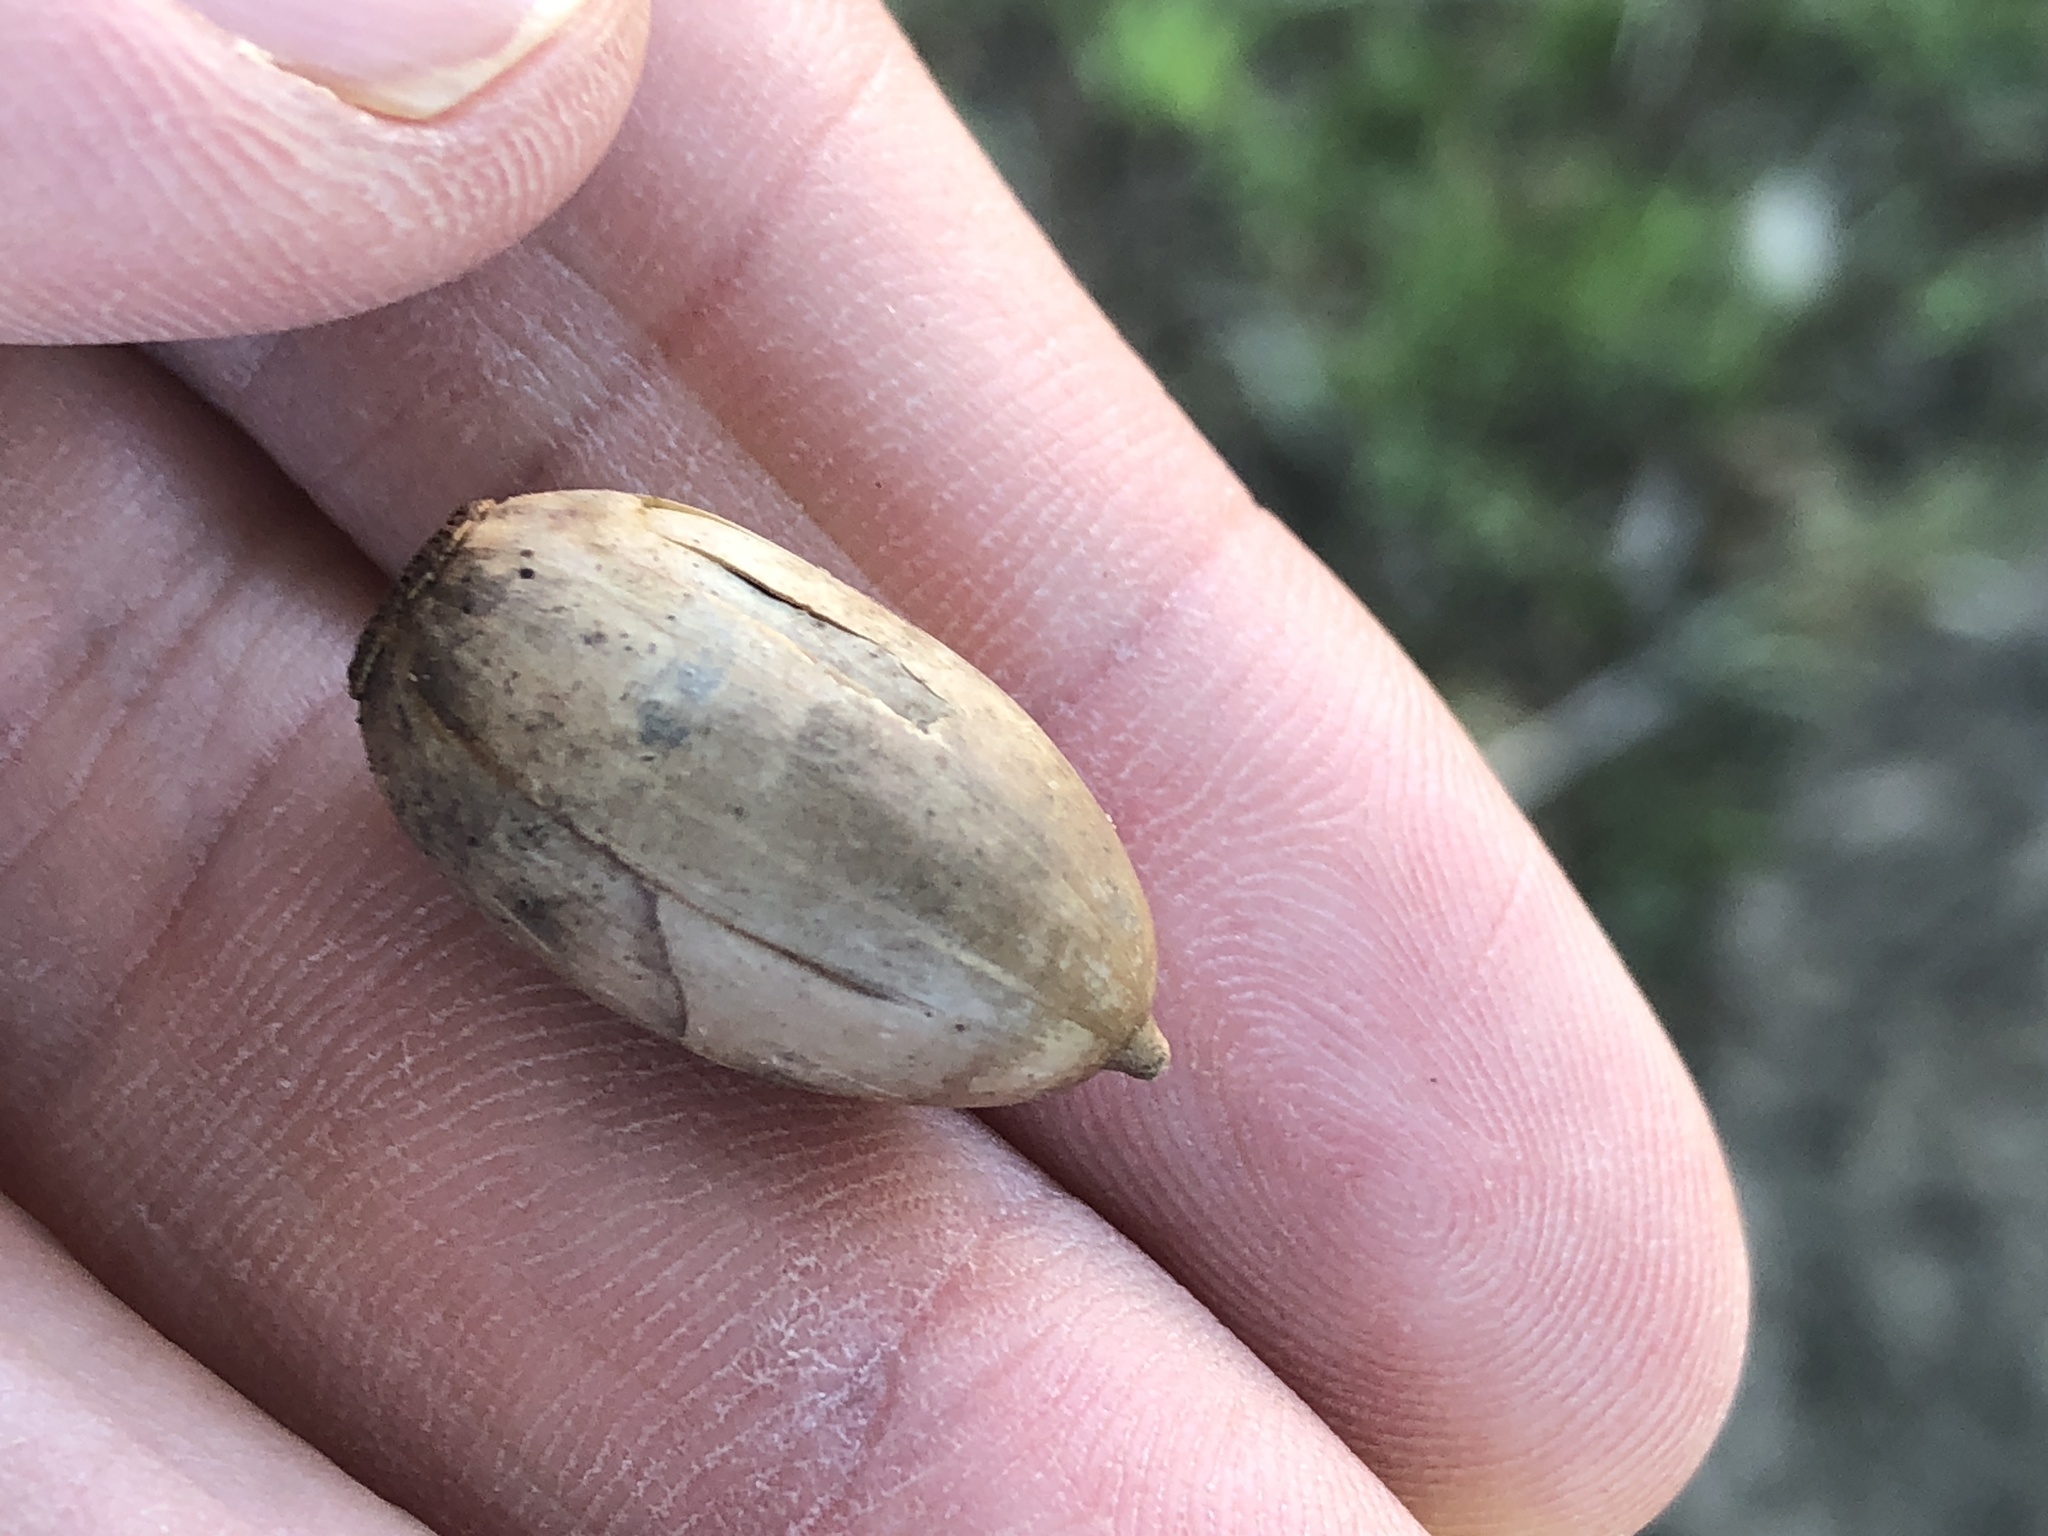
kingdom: Plantae
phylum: Tracheophyta
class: Magnoliopsida
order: Fagales
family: Fagaceae
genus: Quercus
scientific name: Quercus stellata
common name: Post oak
